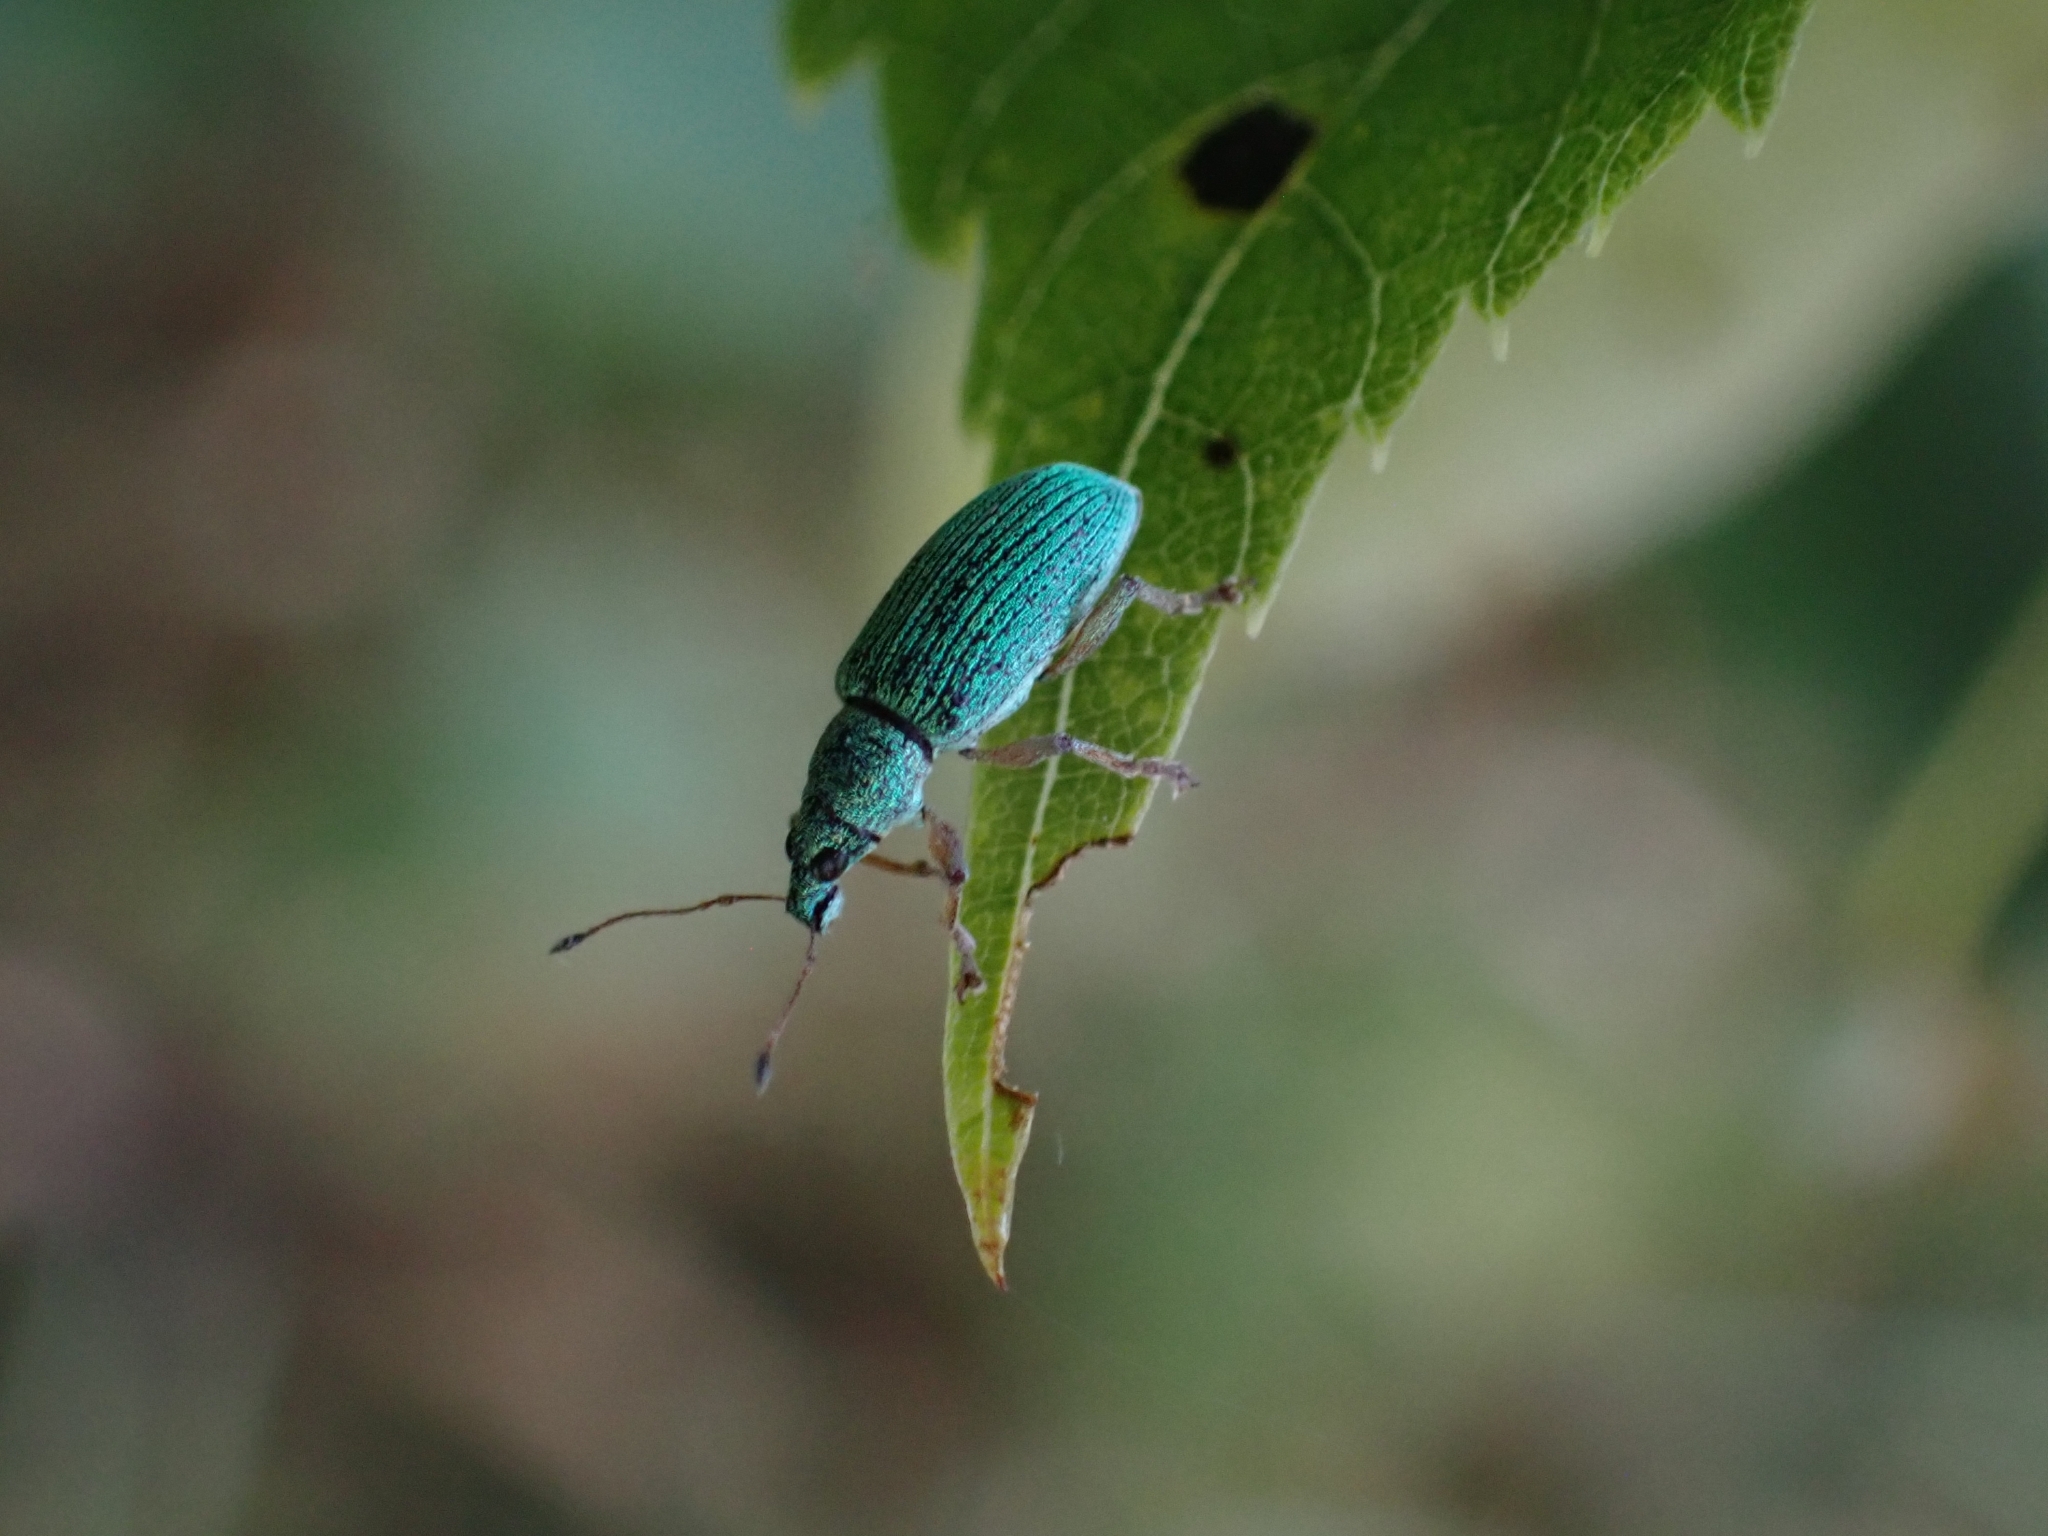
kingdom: Animalia
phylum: Arthropoda
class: Insecta
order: Coleoptera
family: Curculionidae
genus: Polydrusus
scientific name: Polydrusus formosus
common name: Weevil
